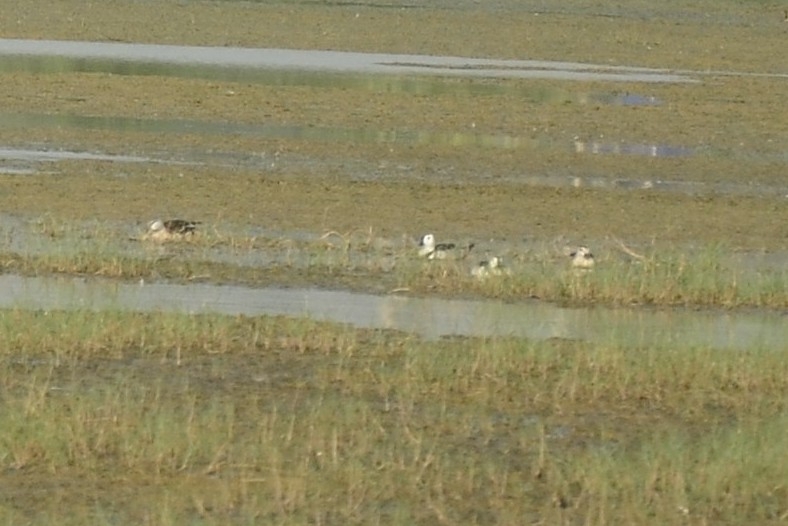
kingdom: Animalia
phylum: Chordata
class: Aves
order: Anseriformes
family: Anatidae
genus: Nettapus
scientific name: Nettapus coromandelianus
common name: Cotton pygmy-goose
